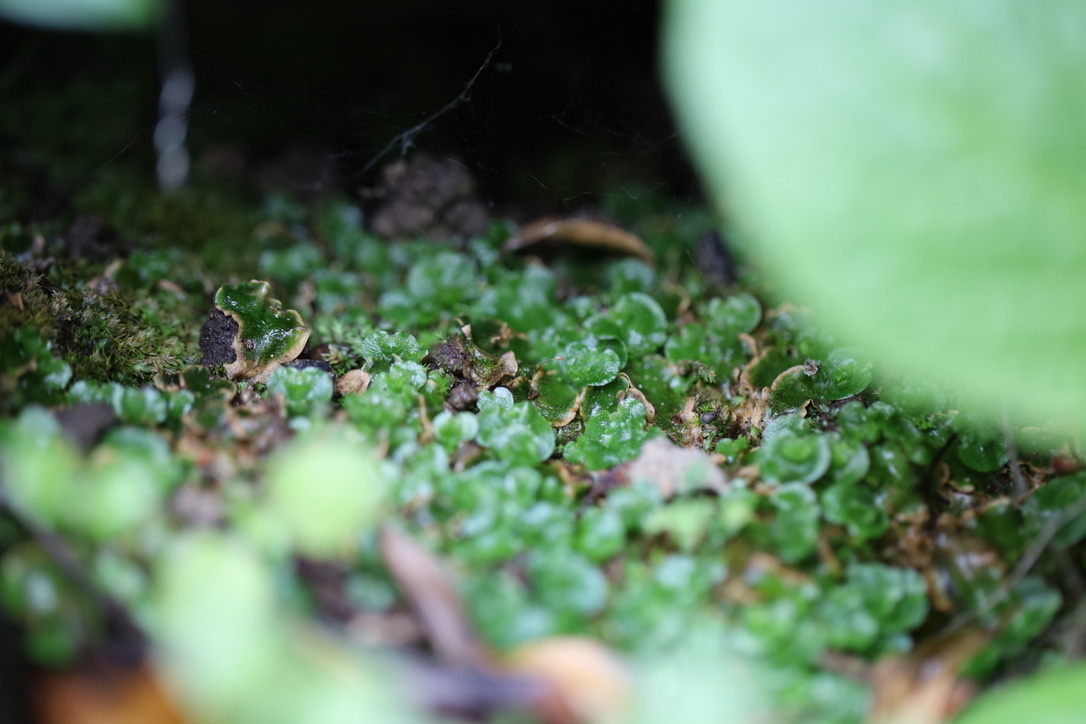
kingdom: Plantae
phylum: Marchantiophyta
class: Marchantiopsida
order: Lunulariales
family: Lunulariaceae
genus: Lunularia
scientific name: Lunularia cruciata
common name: Crescent-cup liverwort
